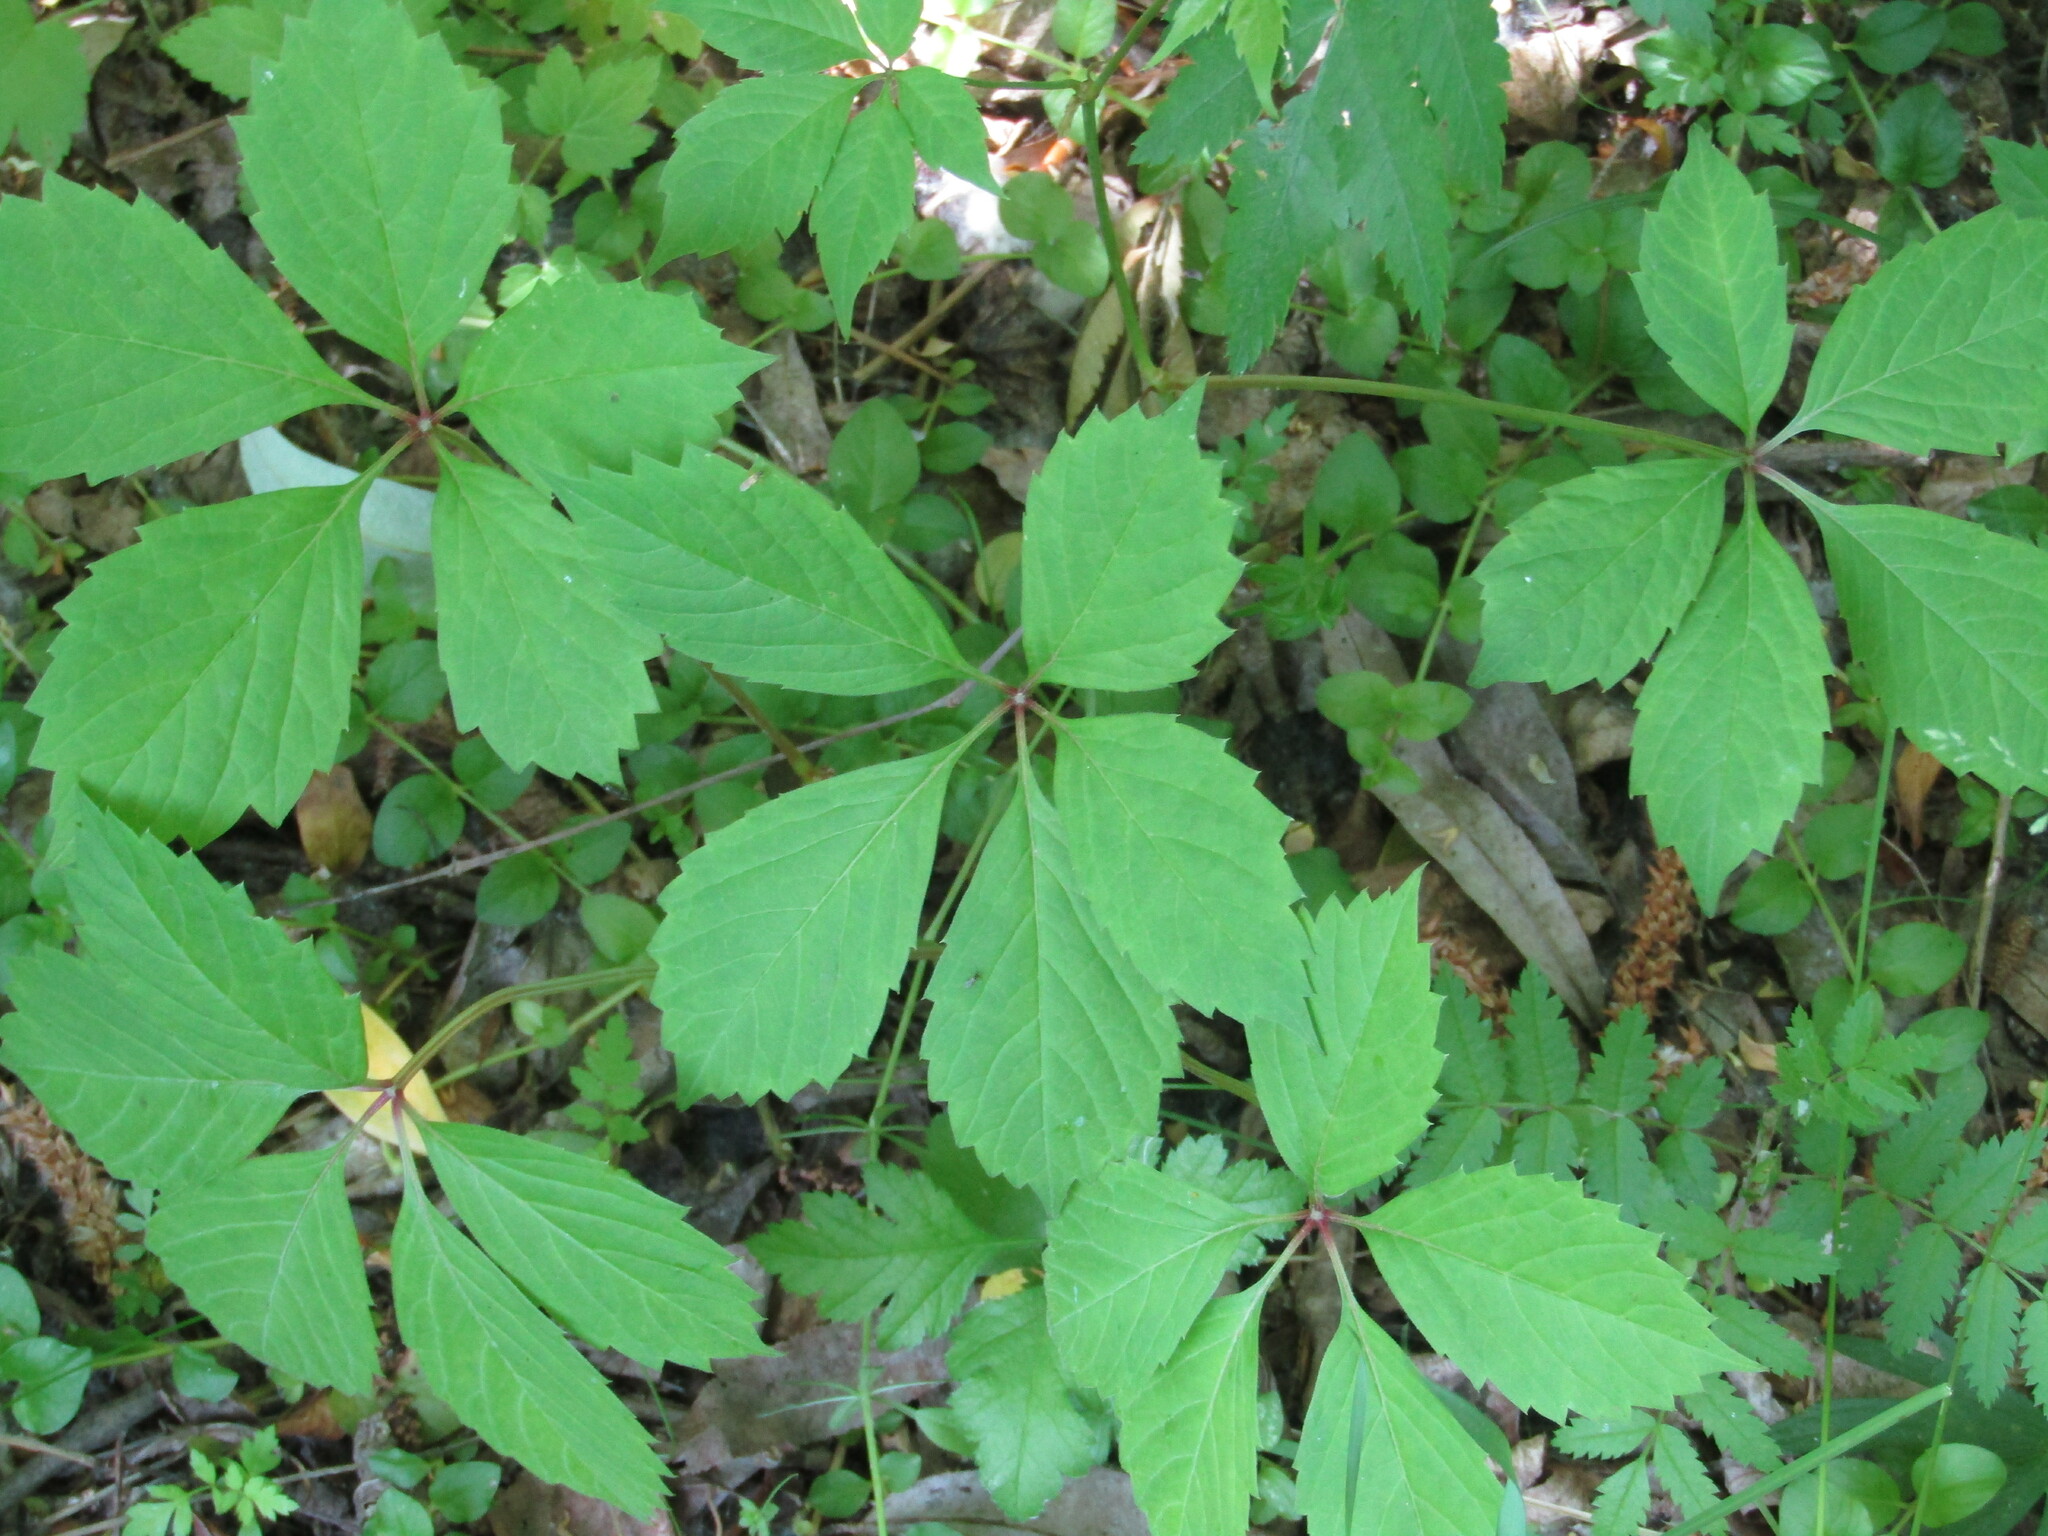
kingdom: Plantae
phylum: Tracheophyta
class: Magnoliopsida
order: Vitales
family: Vitaceae
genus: Parthenocissus
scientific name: Parthenocissus inserta
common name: False virginia-creeper
